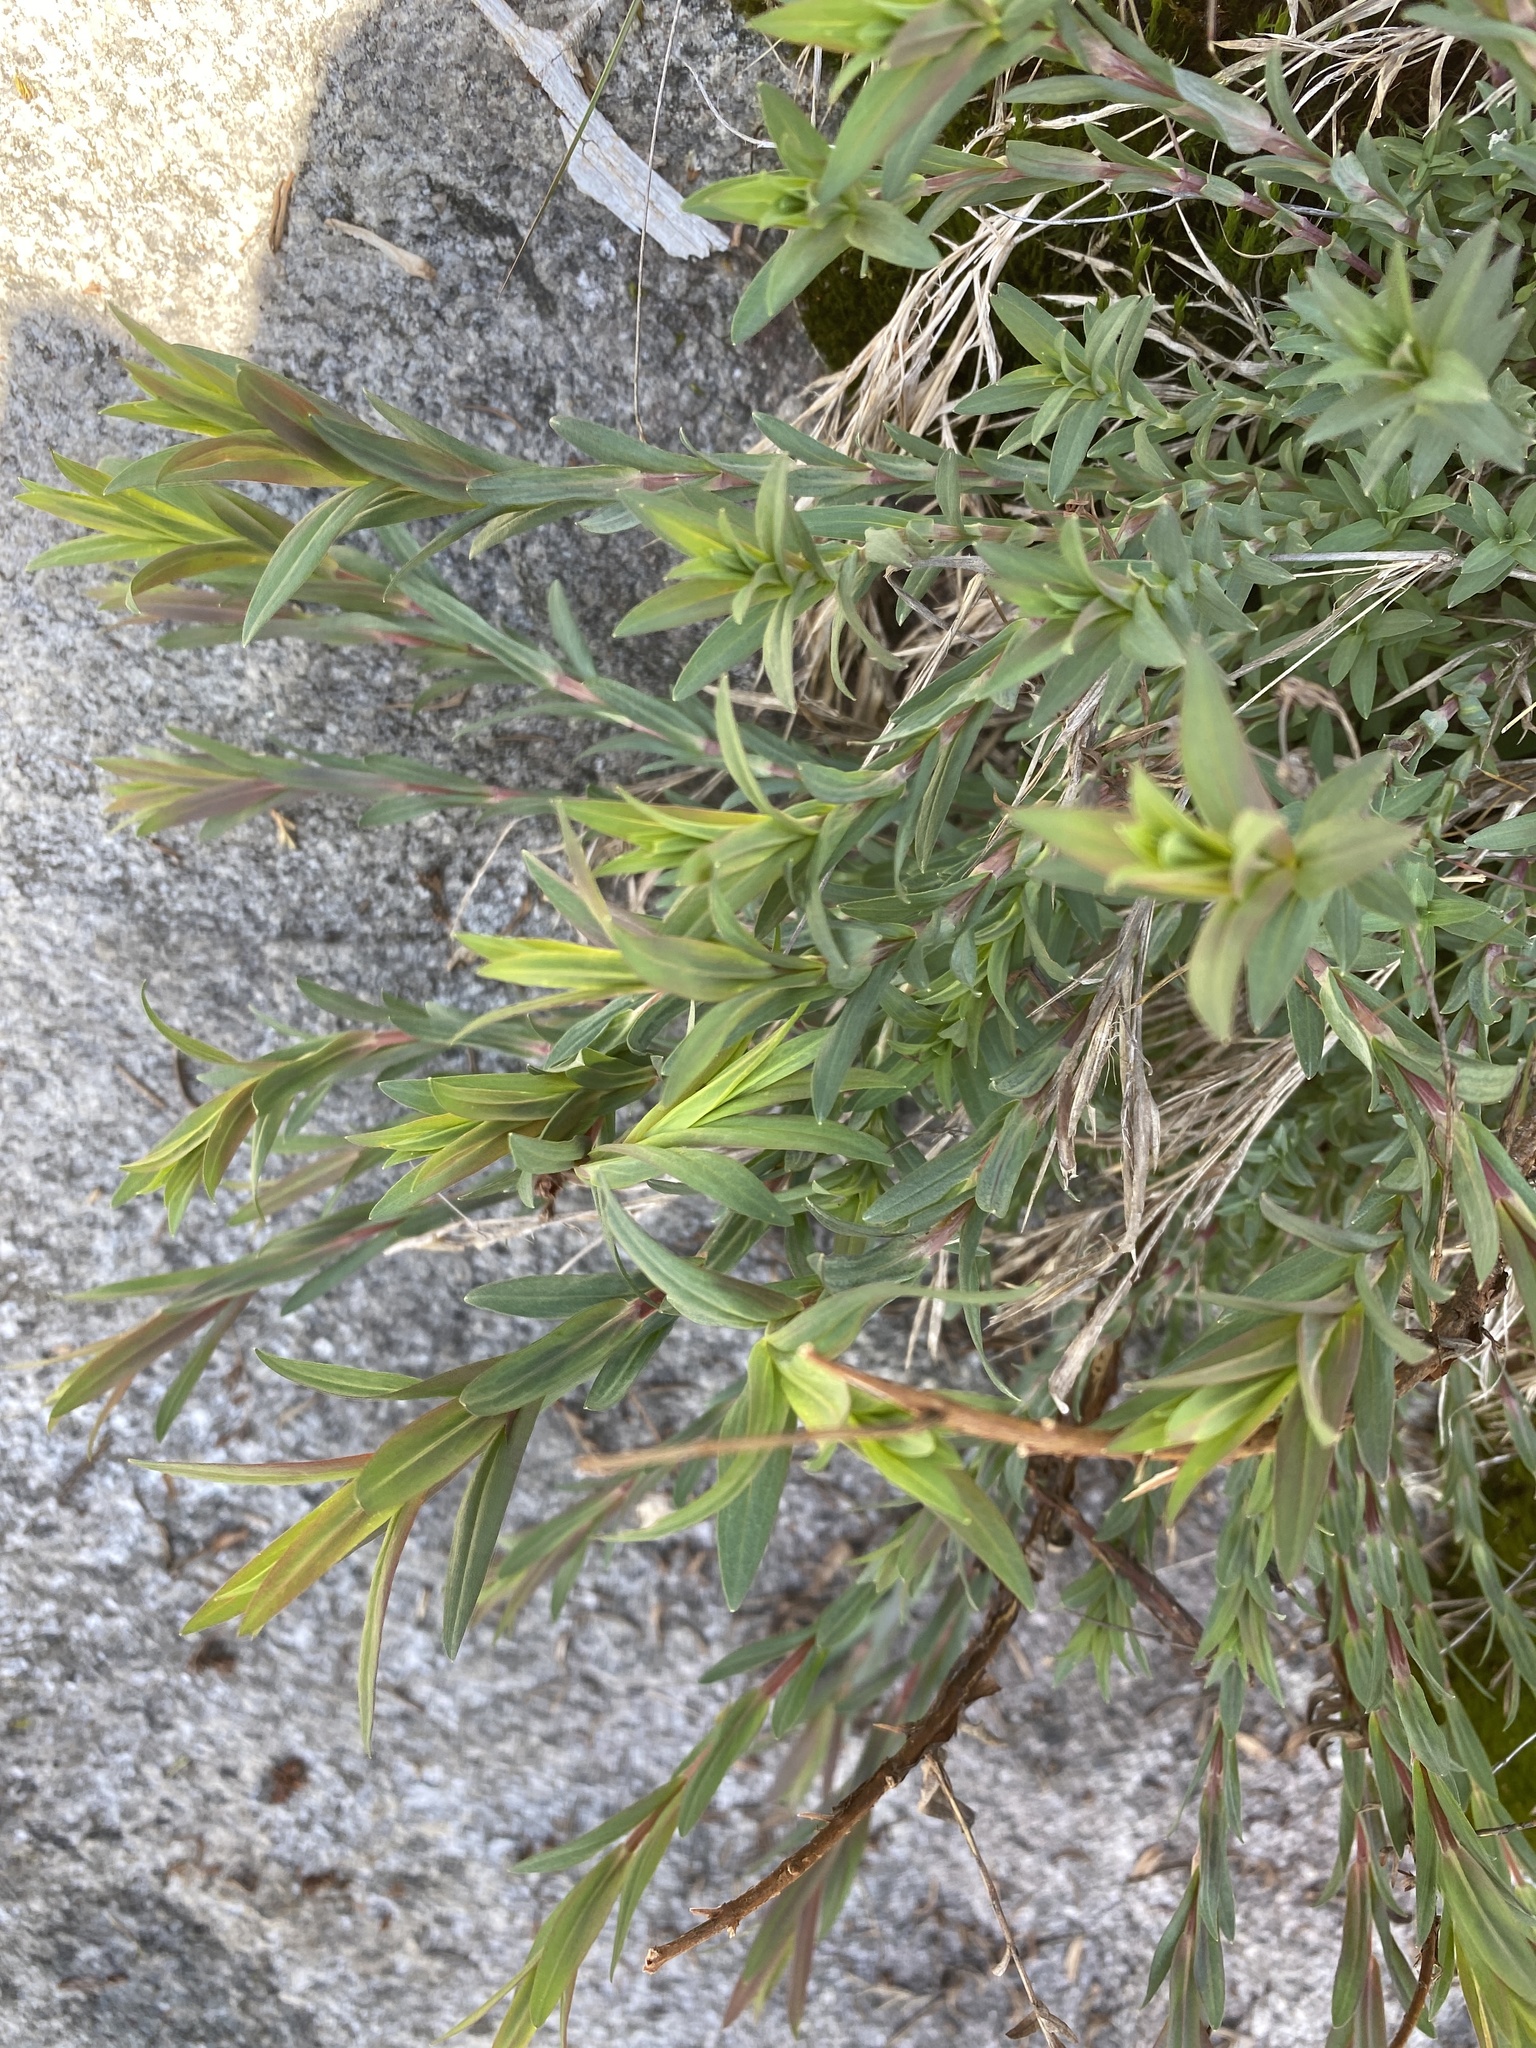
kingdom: Plantae
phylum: Tracheophyta
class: Magnoliopsida
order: Malpighiales
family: Hypericaceae
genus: Hypericum
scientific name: Hypericum radfordiorum
